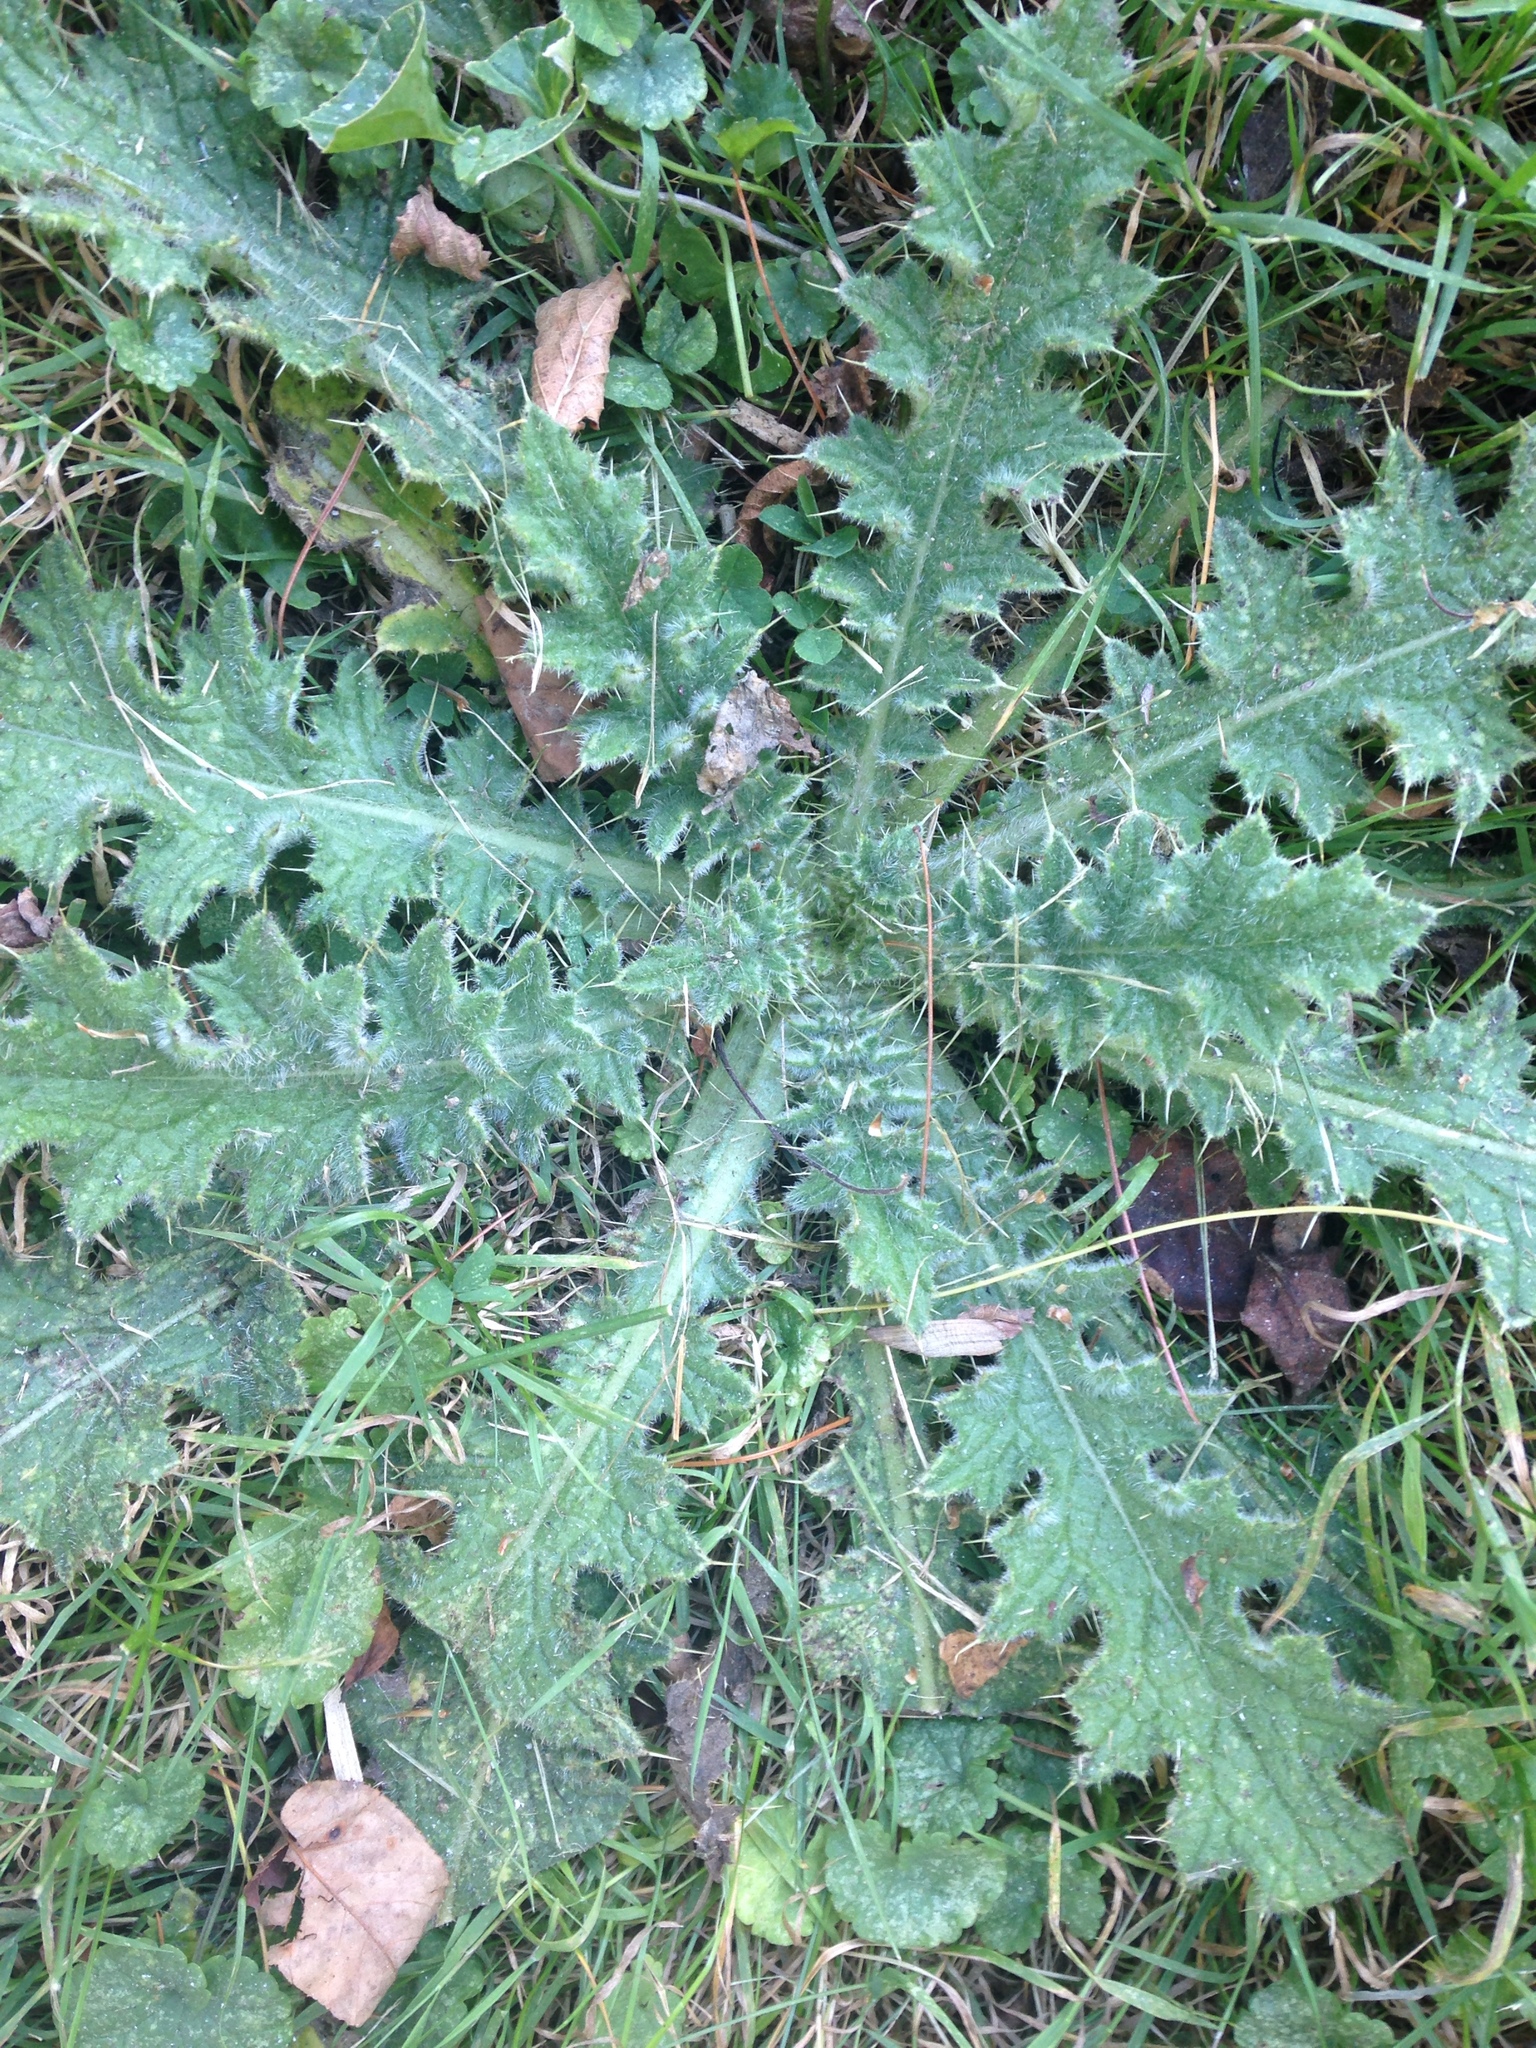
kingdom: Plantae
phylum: Tracheophyta
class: Magnoliopsida
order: Asterales
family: Asteraceae
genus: Cirsium
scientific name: Cirsium vulgare
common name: Bull thistle
